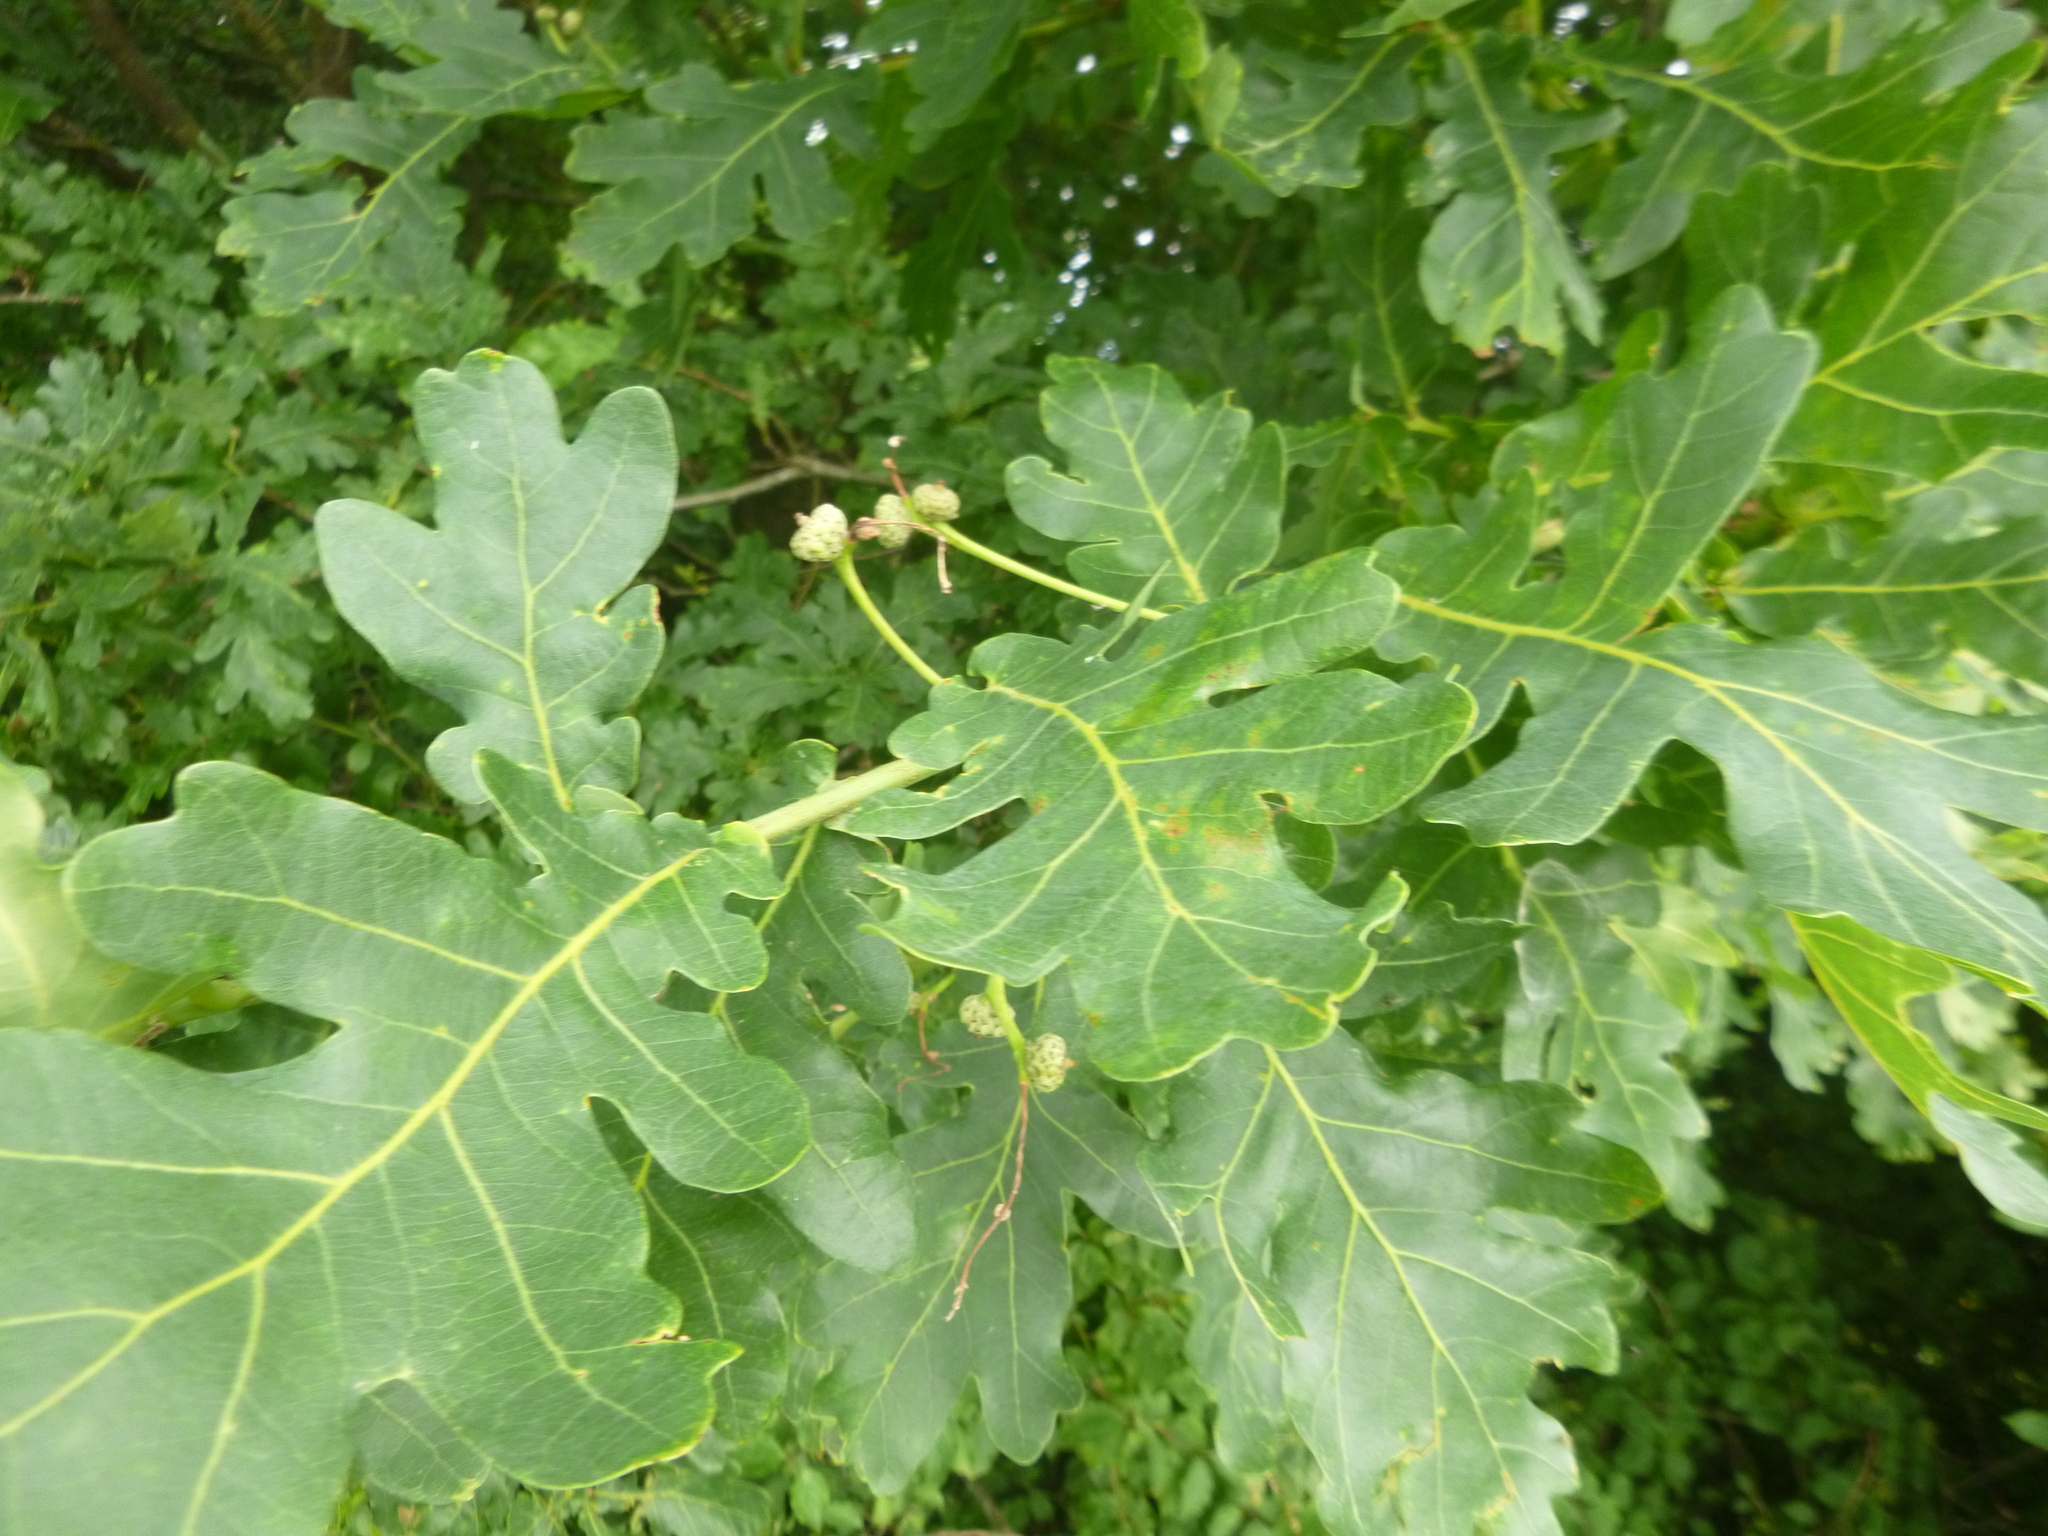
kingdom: Plantae
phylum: Tracheophyta
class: Magnoliopsida
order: Fagales
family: Fagaceae
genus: Quercus
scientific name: Quercus robur
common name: Pedunculate oak
